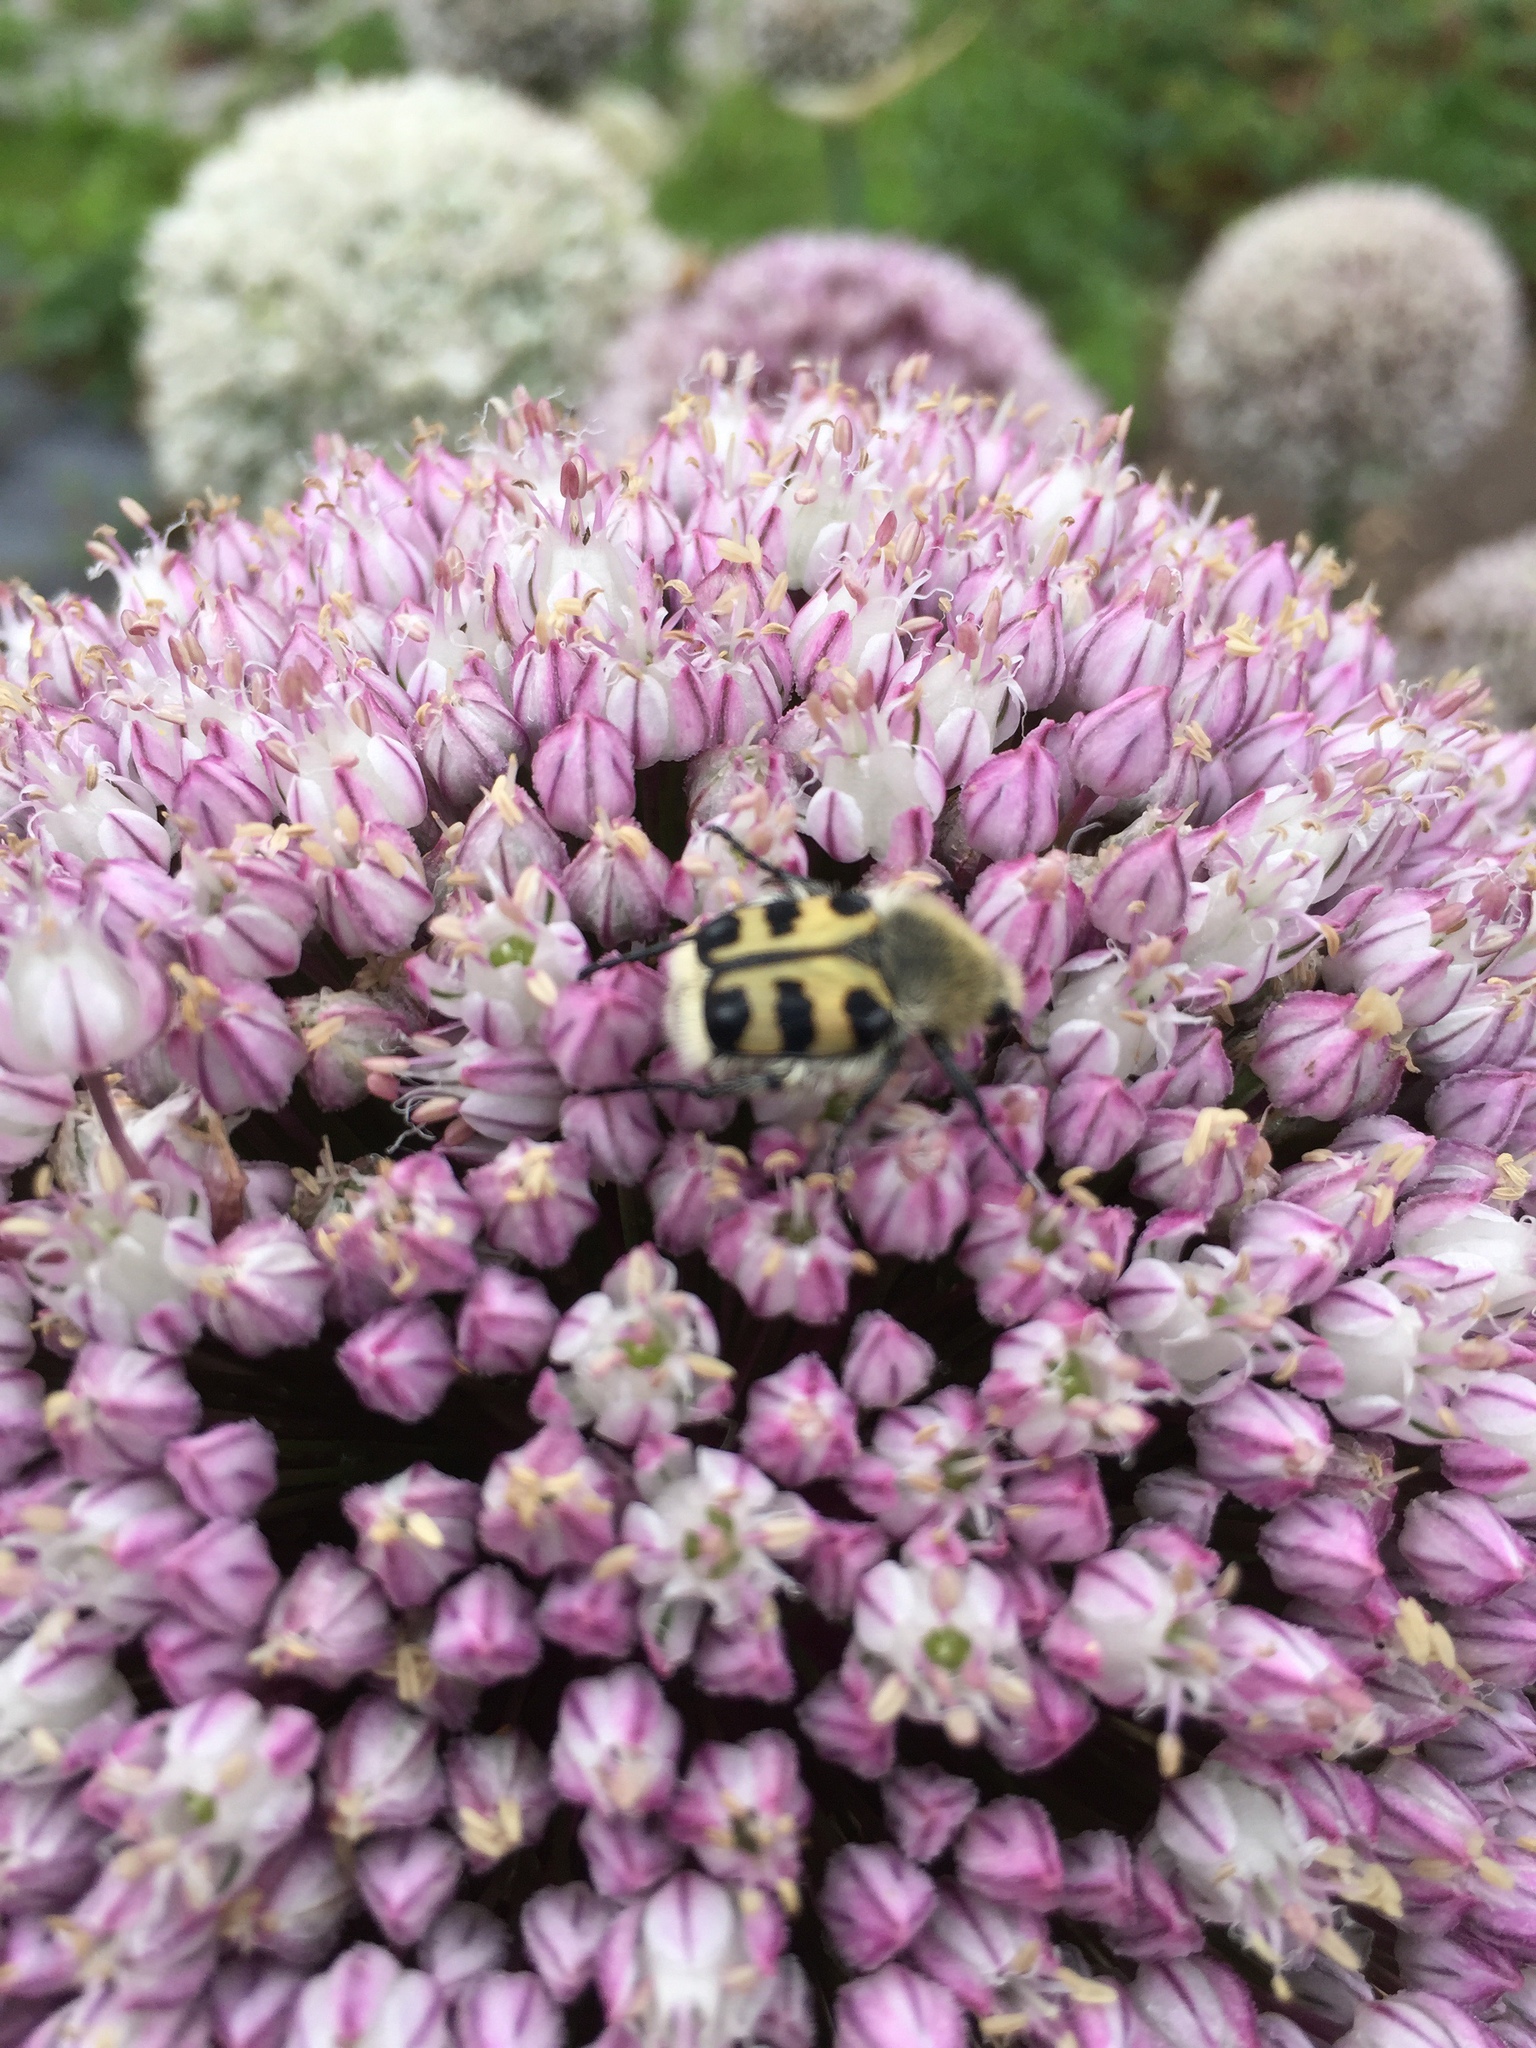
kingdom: Animalia
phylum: Arthropoda
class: Insecta
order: Coleoptera
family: Scarabaeidae
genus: Trichius
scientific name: Trichius gallicus
